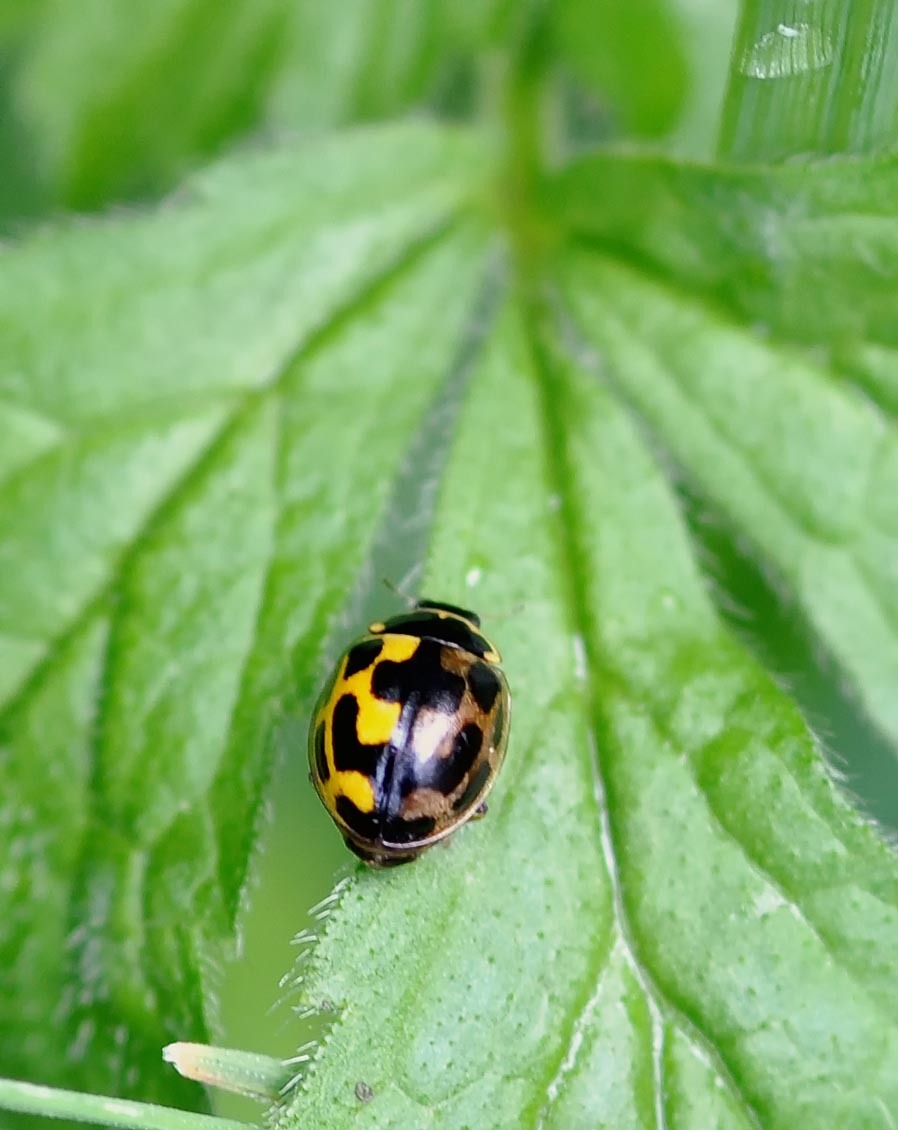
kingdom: Animalia
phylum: Arthropoda
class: Insecta
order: Coleoptera
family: Coccinellidae
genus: Propylaea
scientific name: Propylaea quatuordecimpunctata
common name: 14-spotted ladybird beetle
